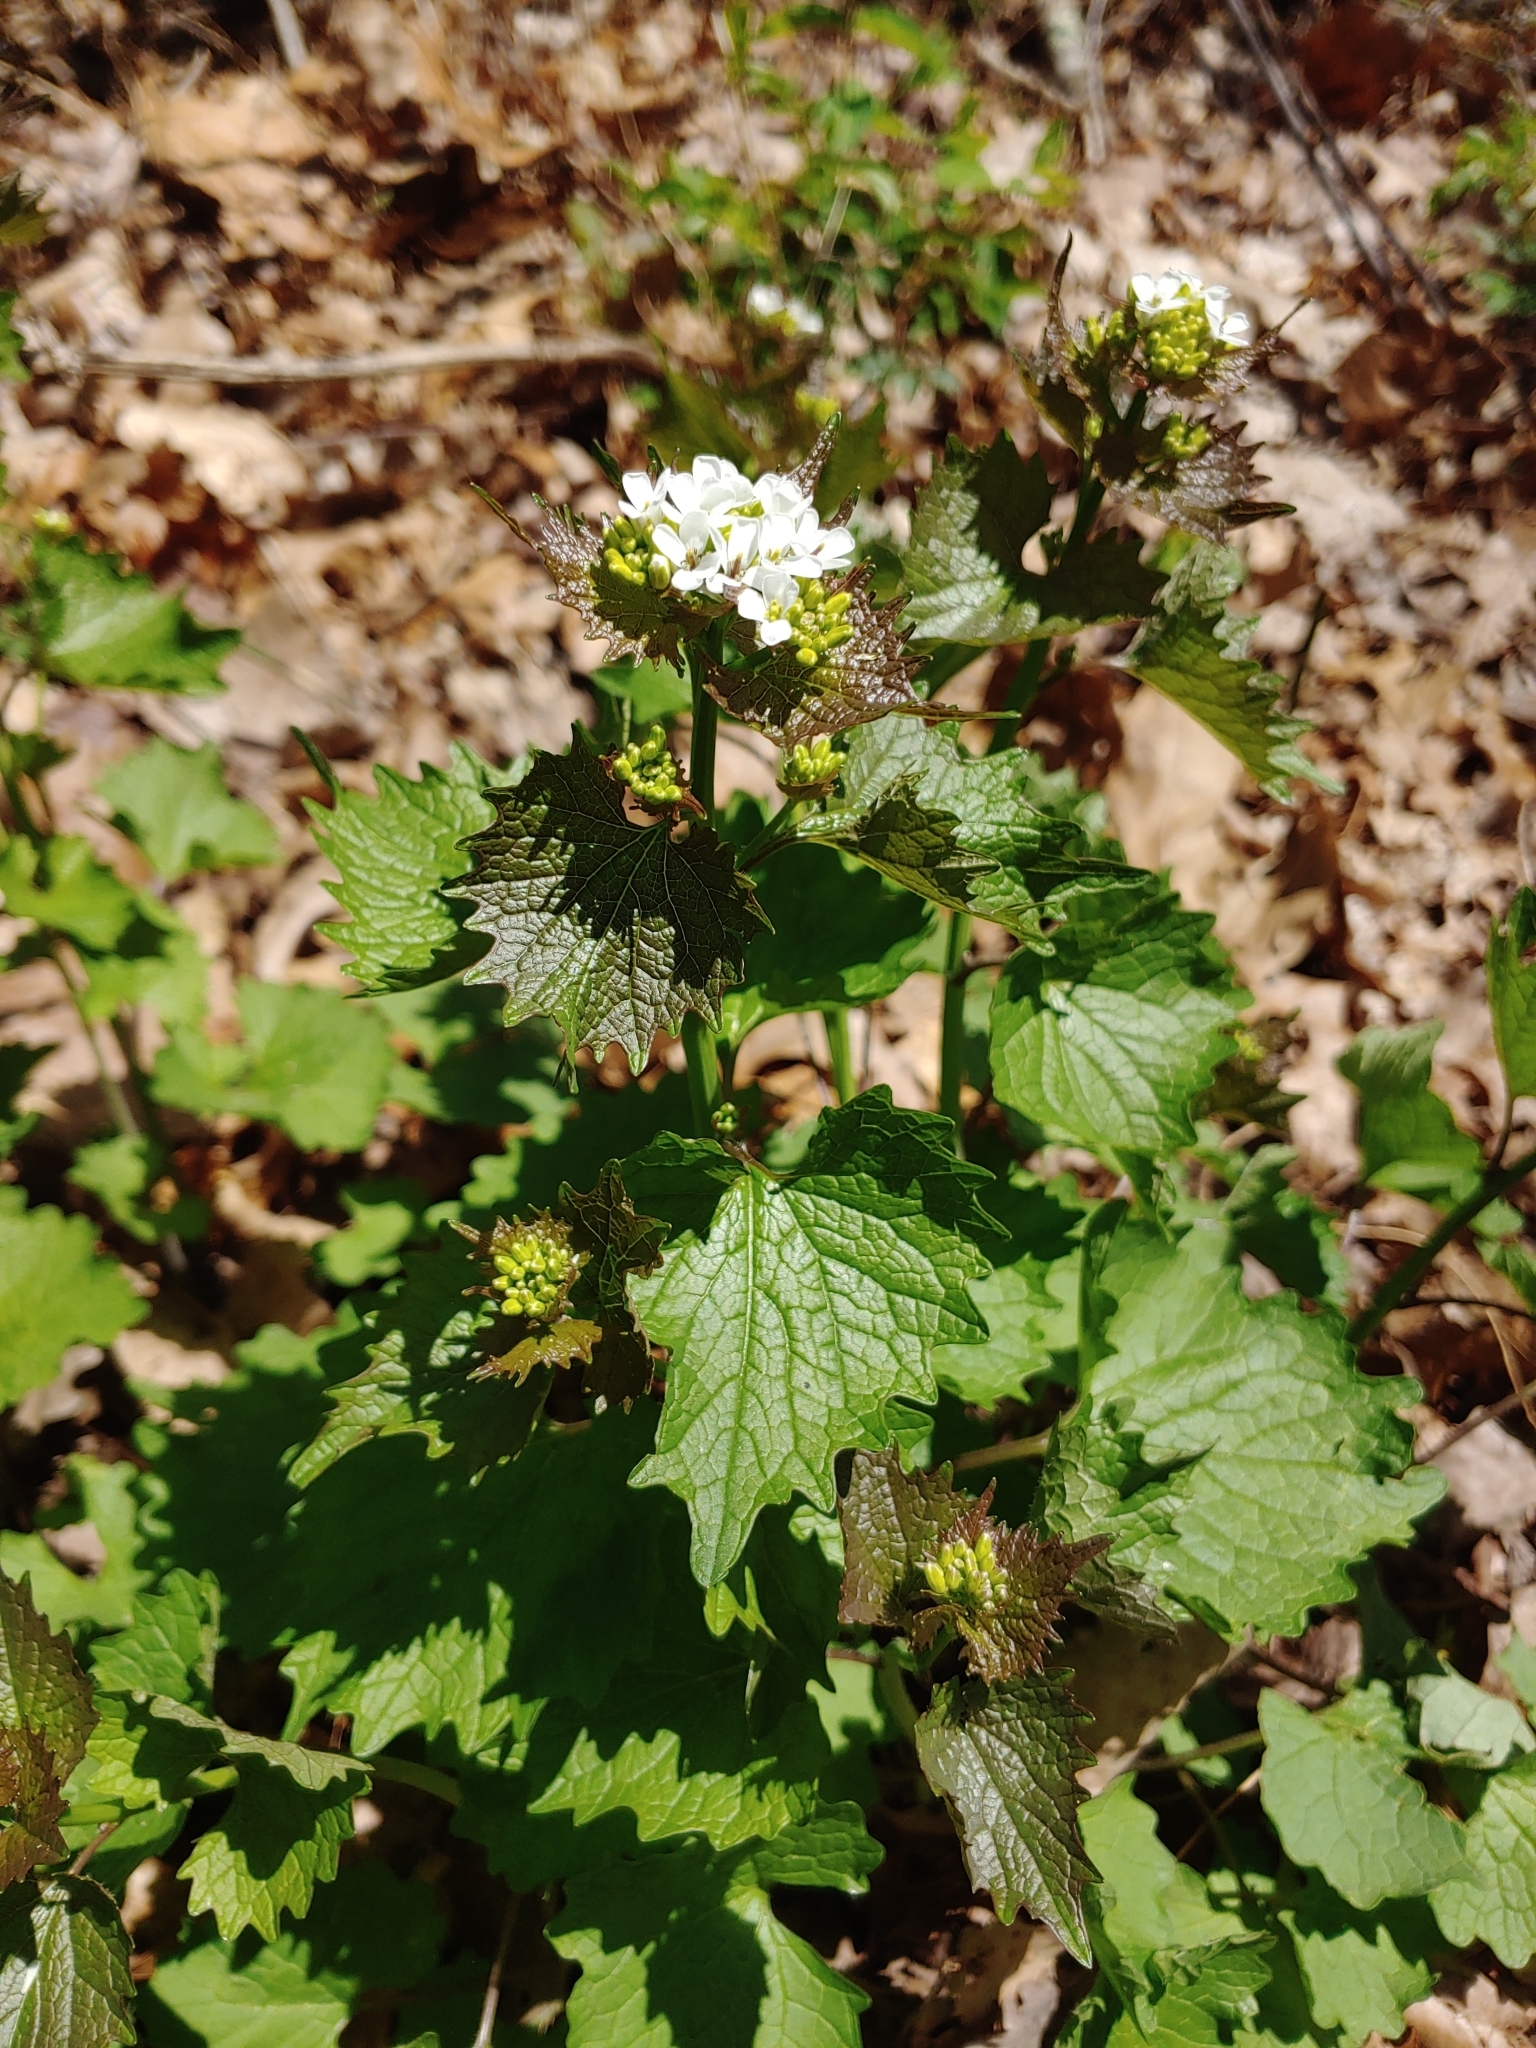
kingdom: Plantae
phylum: Tracheophyta
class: Magnoliopsida
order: Brassicales
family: Brassicaceae
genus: Alliaria
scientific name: Alliaria petiolata
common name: Garlic mustard
